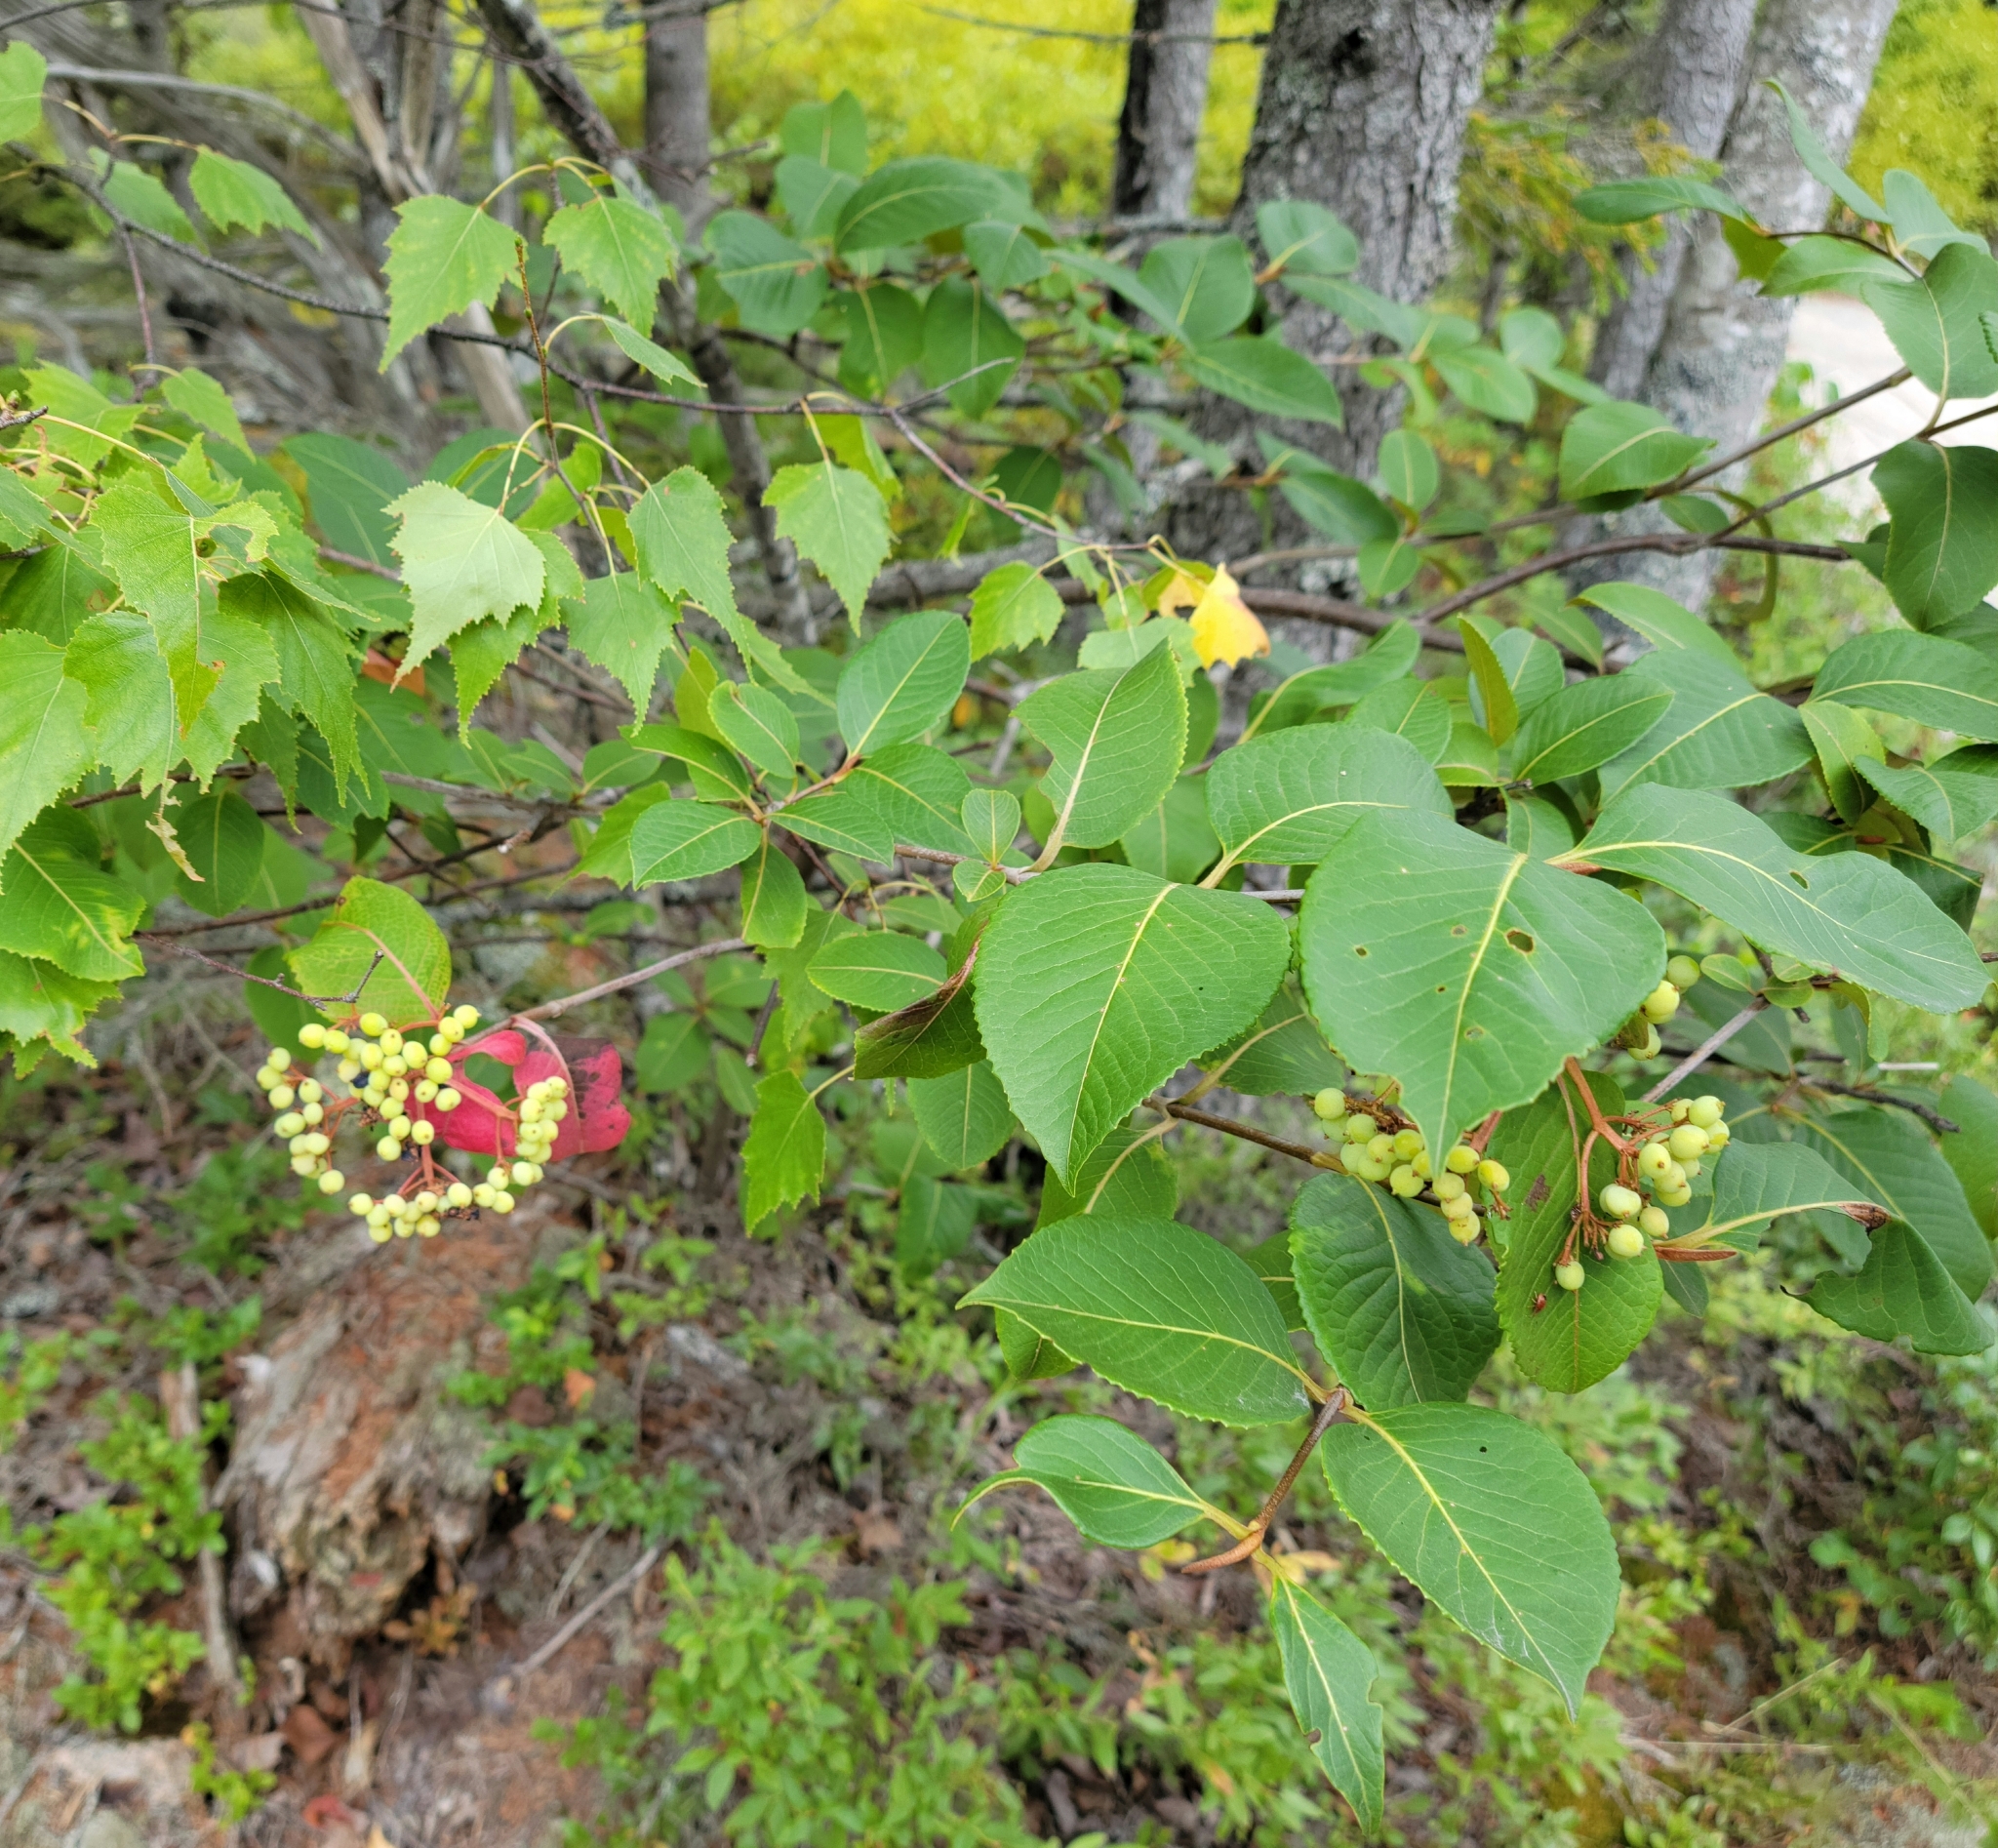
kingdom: Plantae
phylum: Tracheophyta
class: Magnoliopsida
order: Dipsacales
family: Viburnaceae
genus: Viburnum
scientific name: Viburnum cassinoides
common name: Swamp haw
